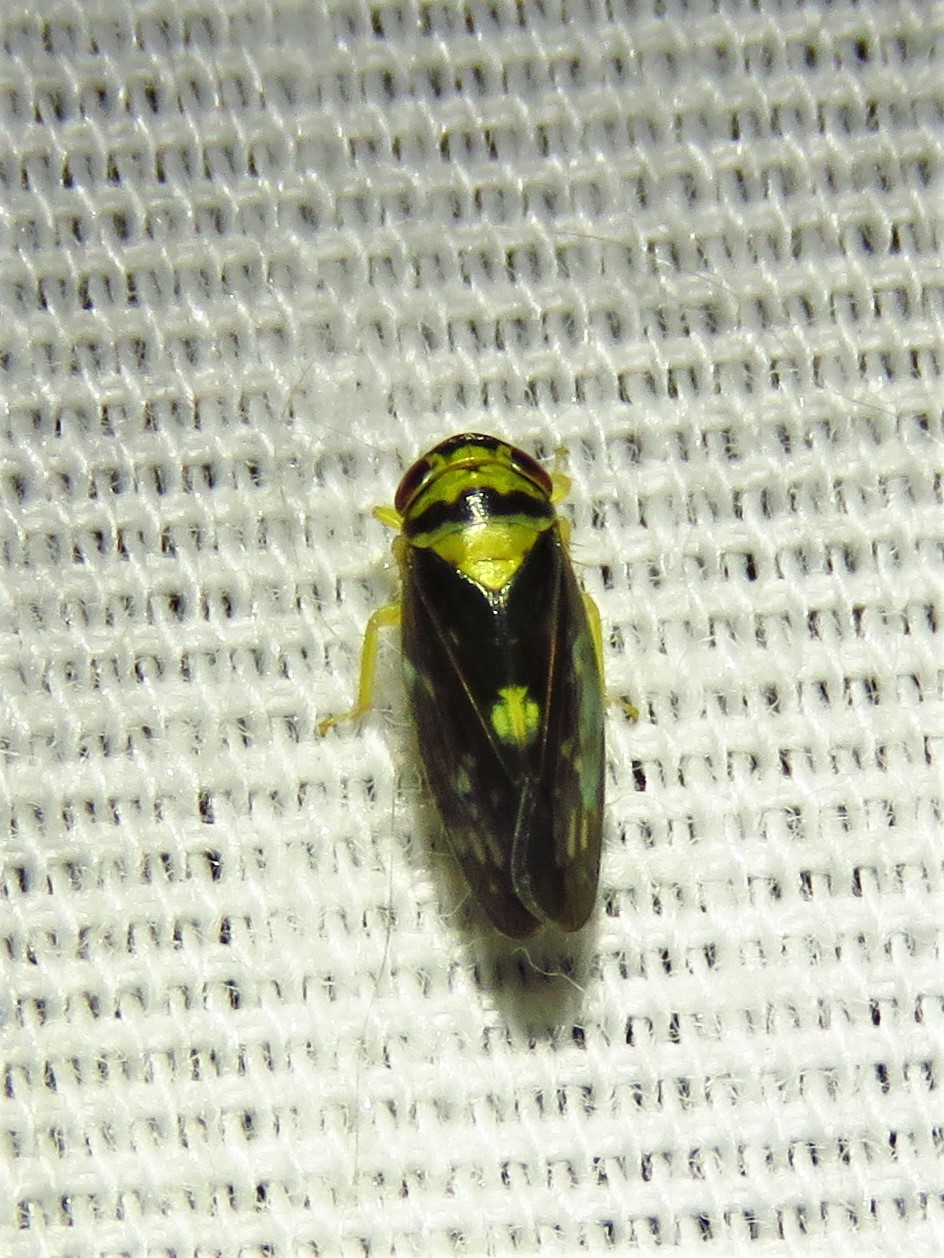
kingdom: Animalia
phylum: Arthropoda
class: Insecta
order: Hemiptera
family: Cicadellidae
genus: Eutettix
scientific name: Eutettix pictus
